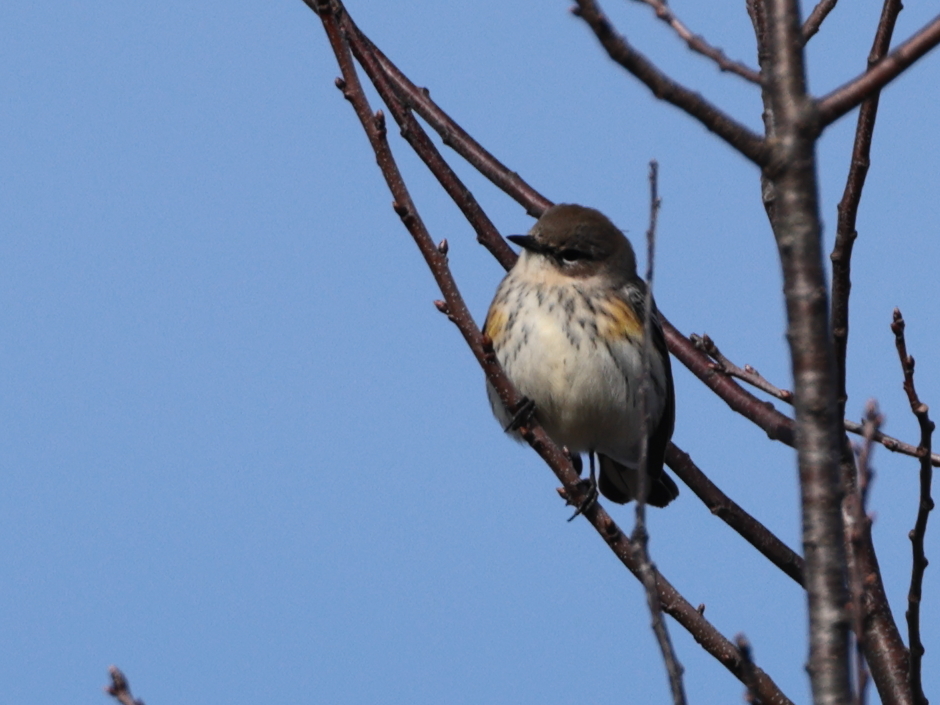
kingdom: Animalia
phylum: Chordata
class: Aves
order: Passeriformes
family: Parulidae
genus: Setophaga
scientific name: Setophaga coronata
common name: Myrtle warbler
